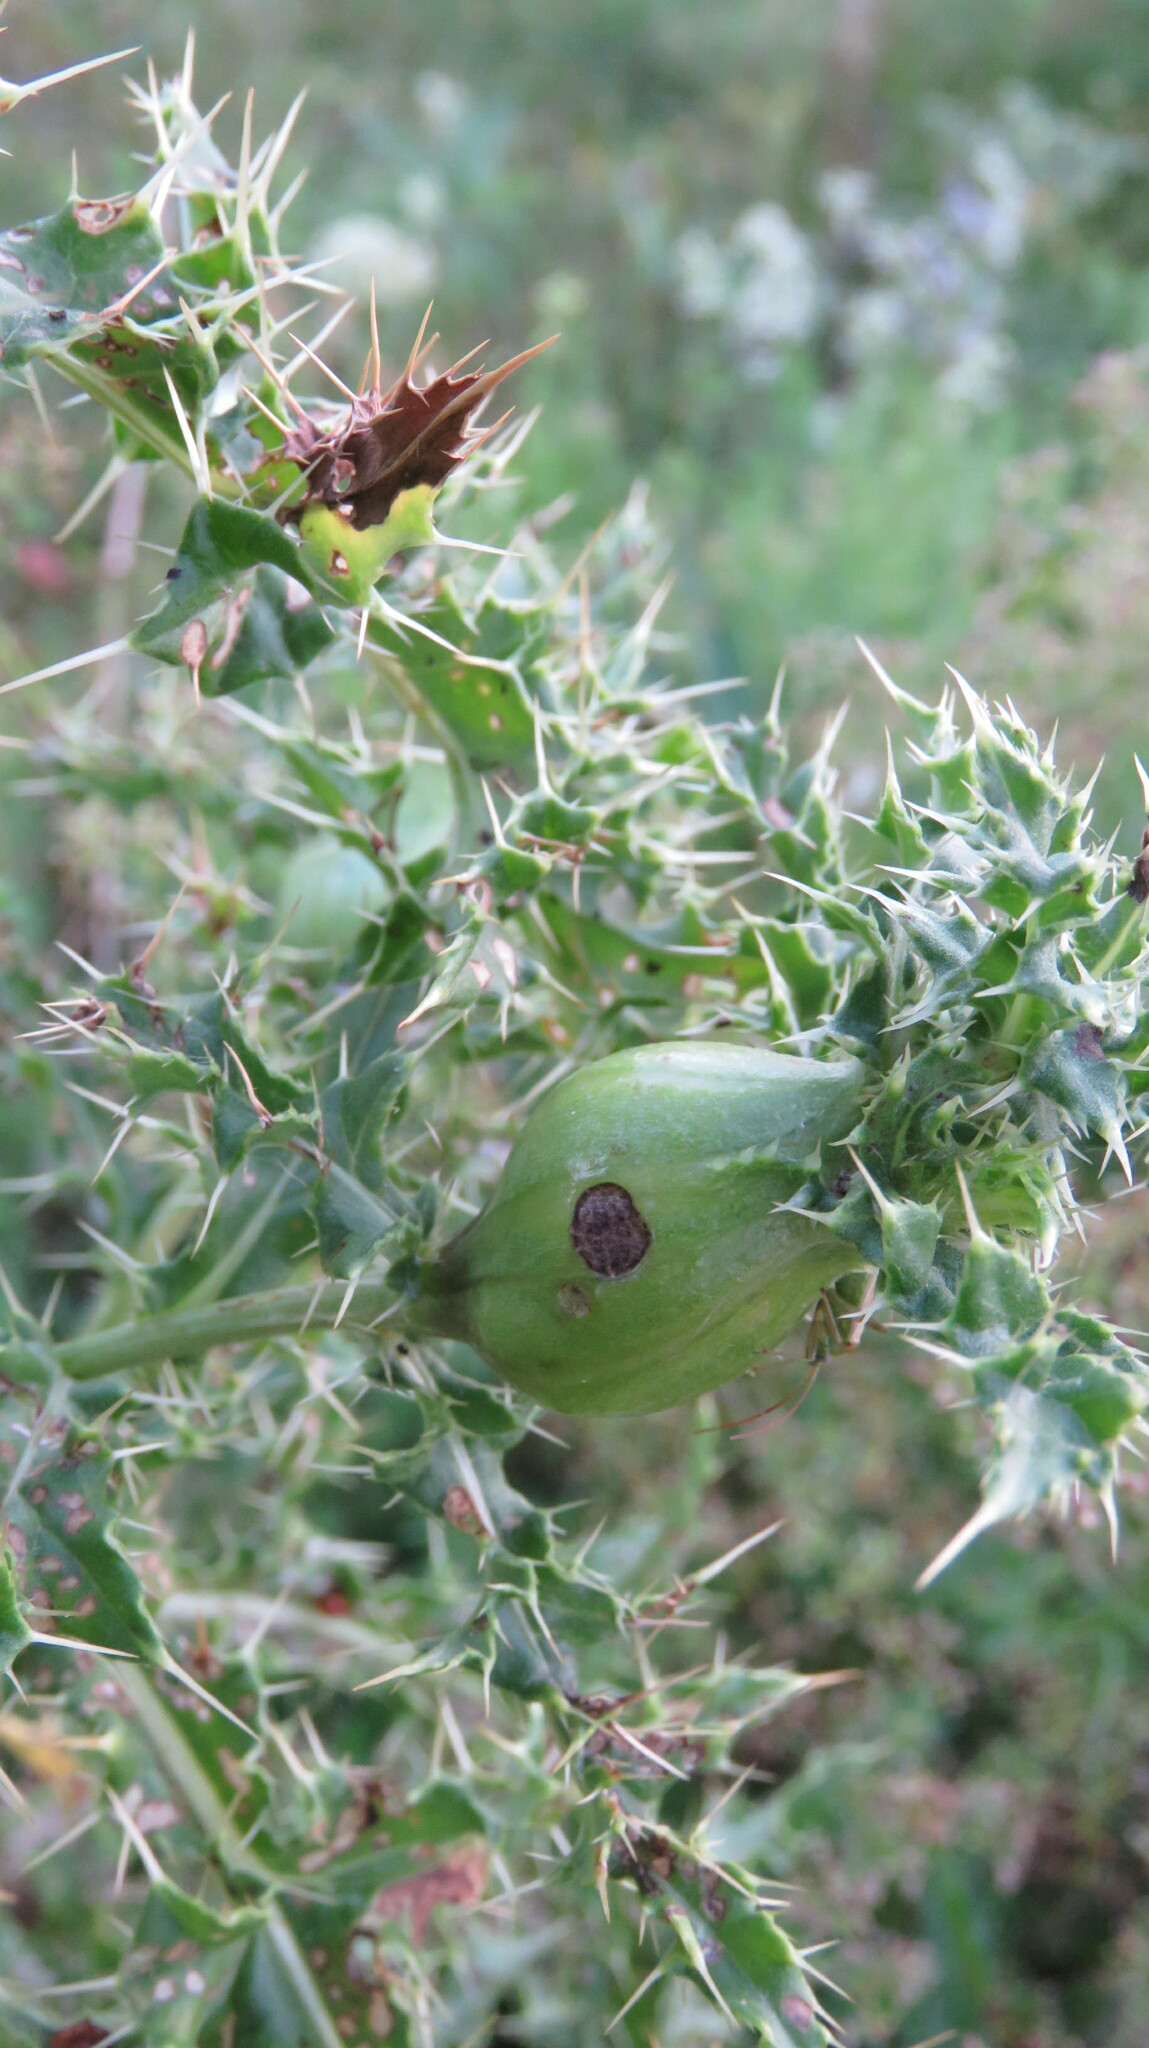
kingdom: Animalia
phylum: Arthropoda
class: Insecta
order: Diptera
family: Tephritidae
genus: Urophora
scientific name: Urophora cardui
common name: Fruit fly
